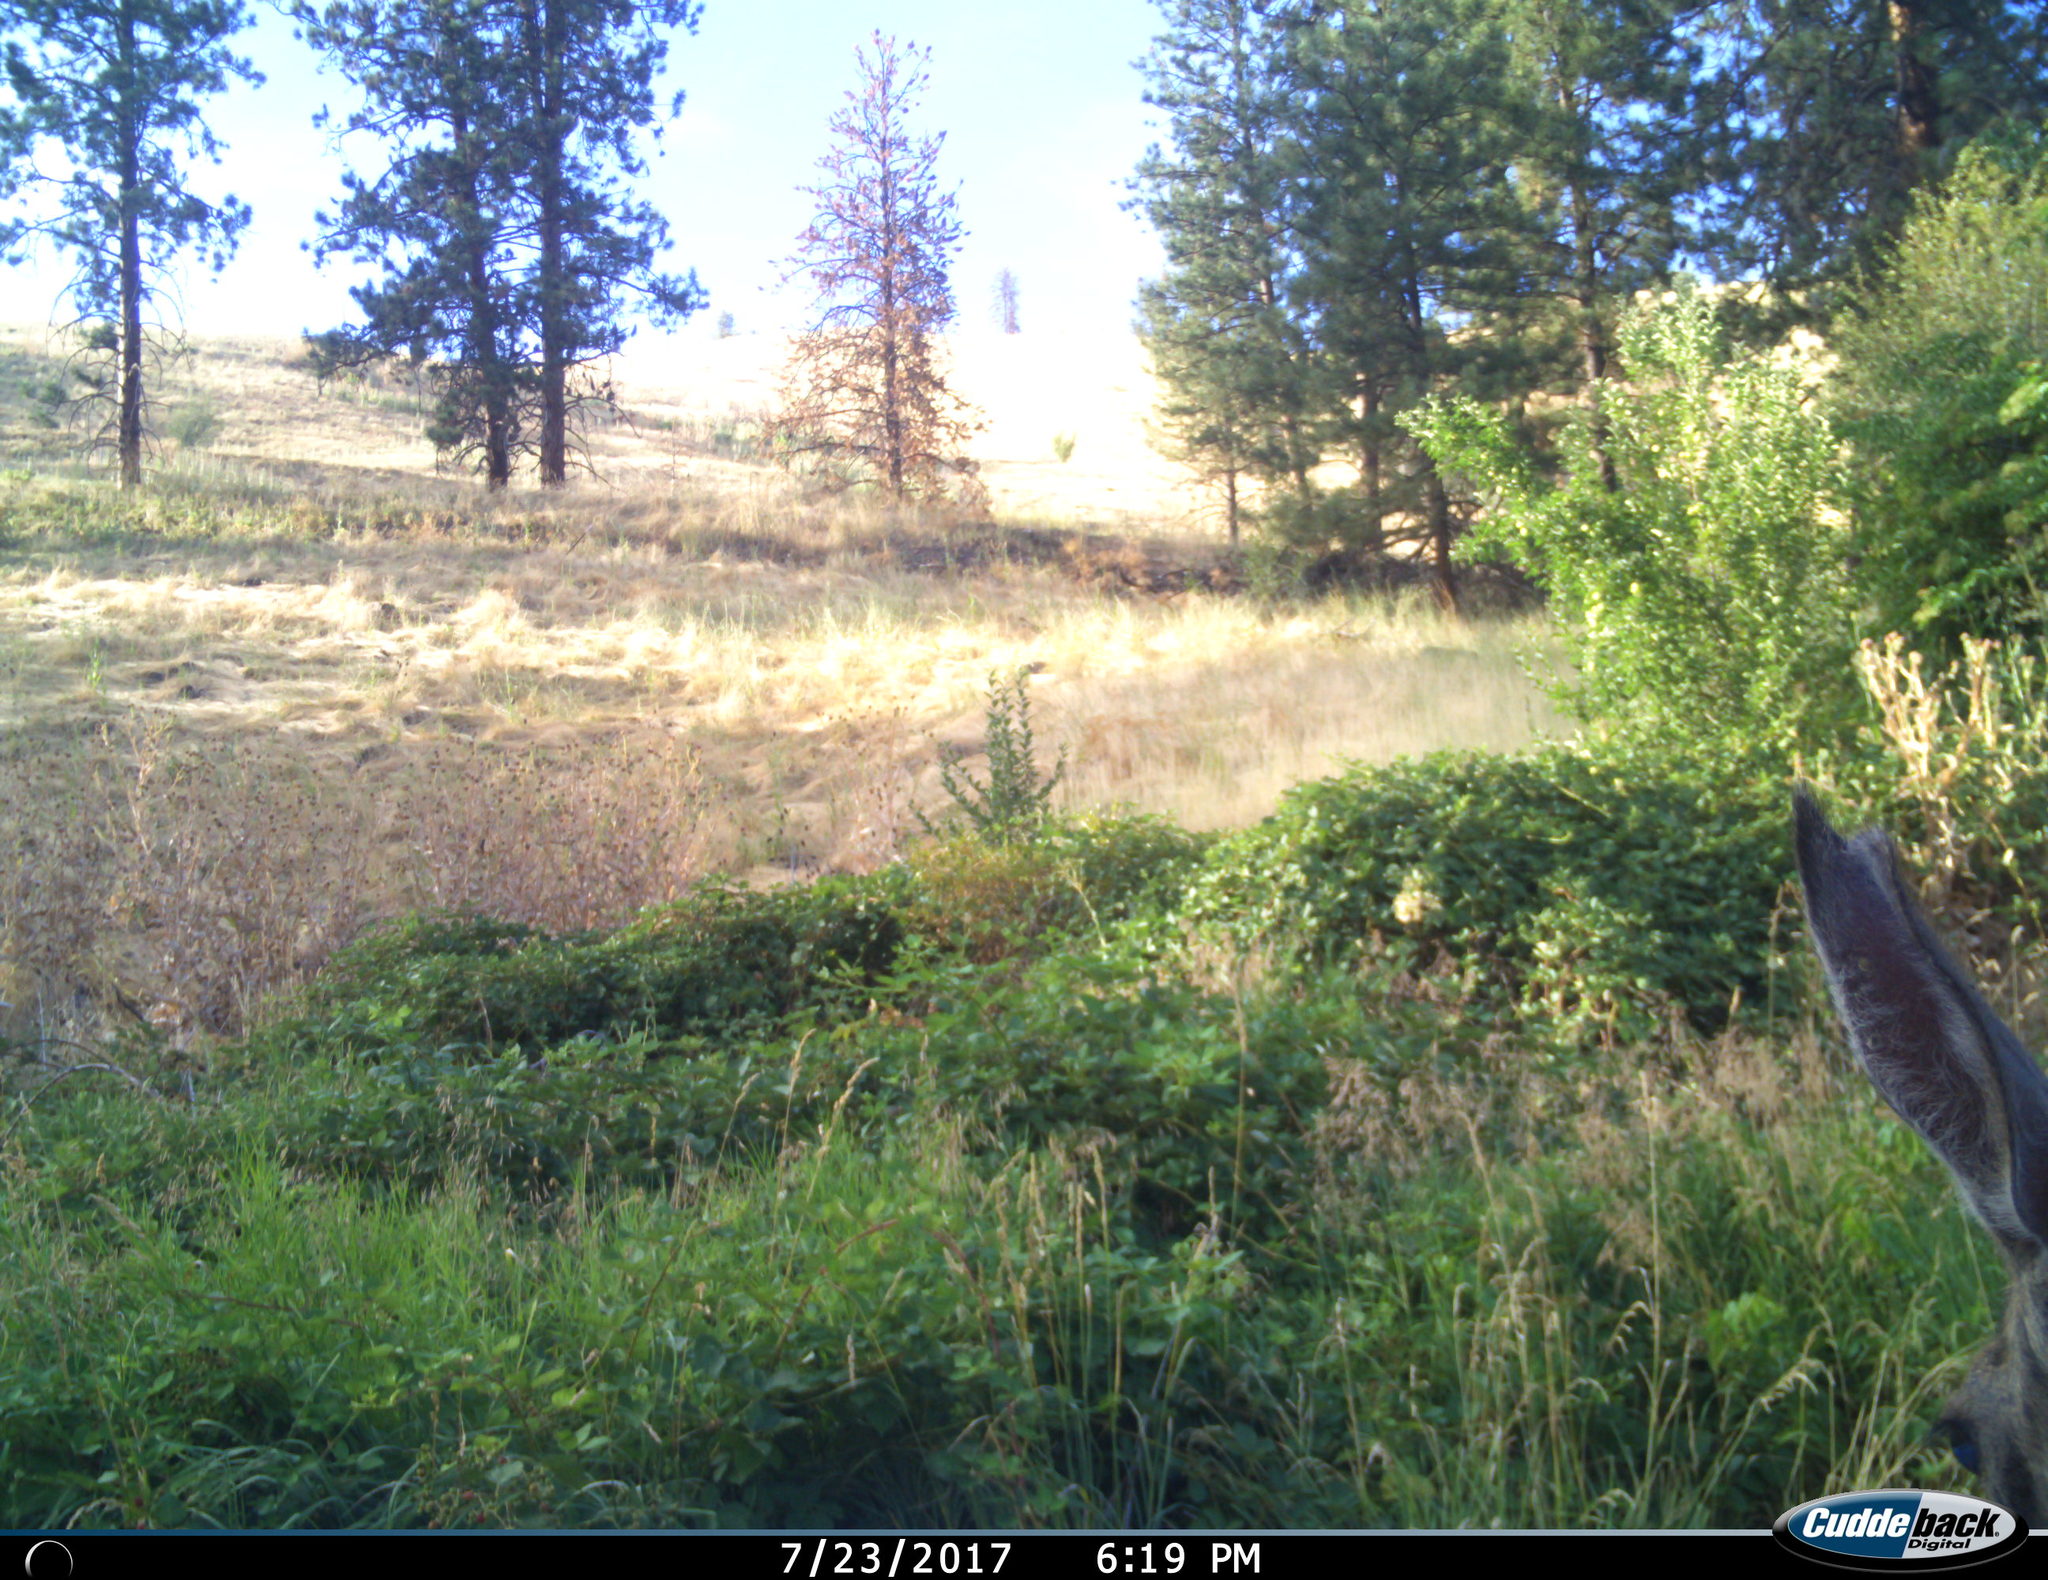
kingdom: Animalia
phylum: Chordata
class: Mammalia
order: Artiodactyla
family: Cervidae
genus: Odocoileus
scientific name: Odocoileus hemionus
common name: Mule deer
